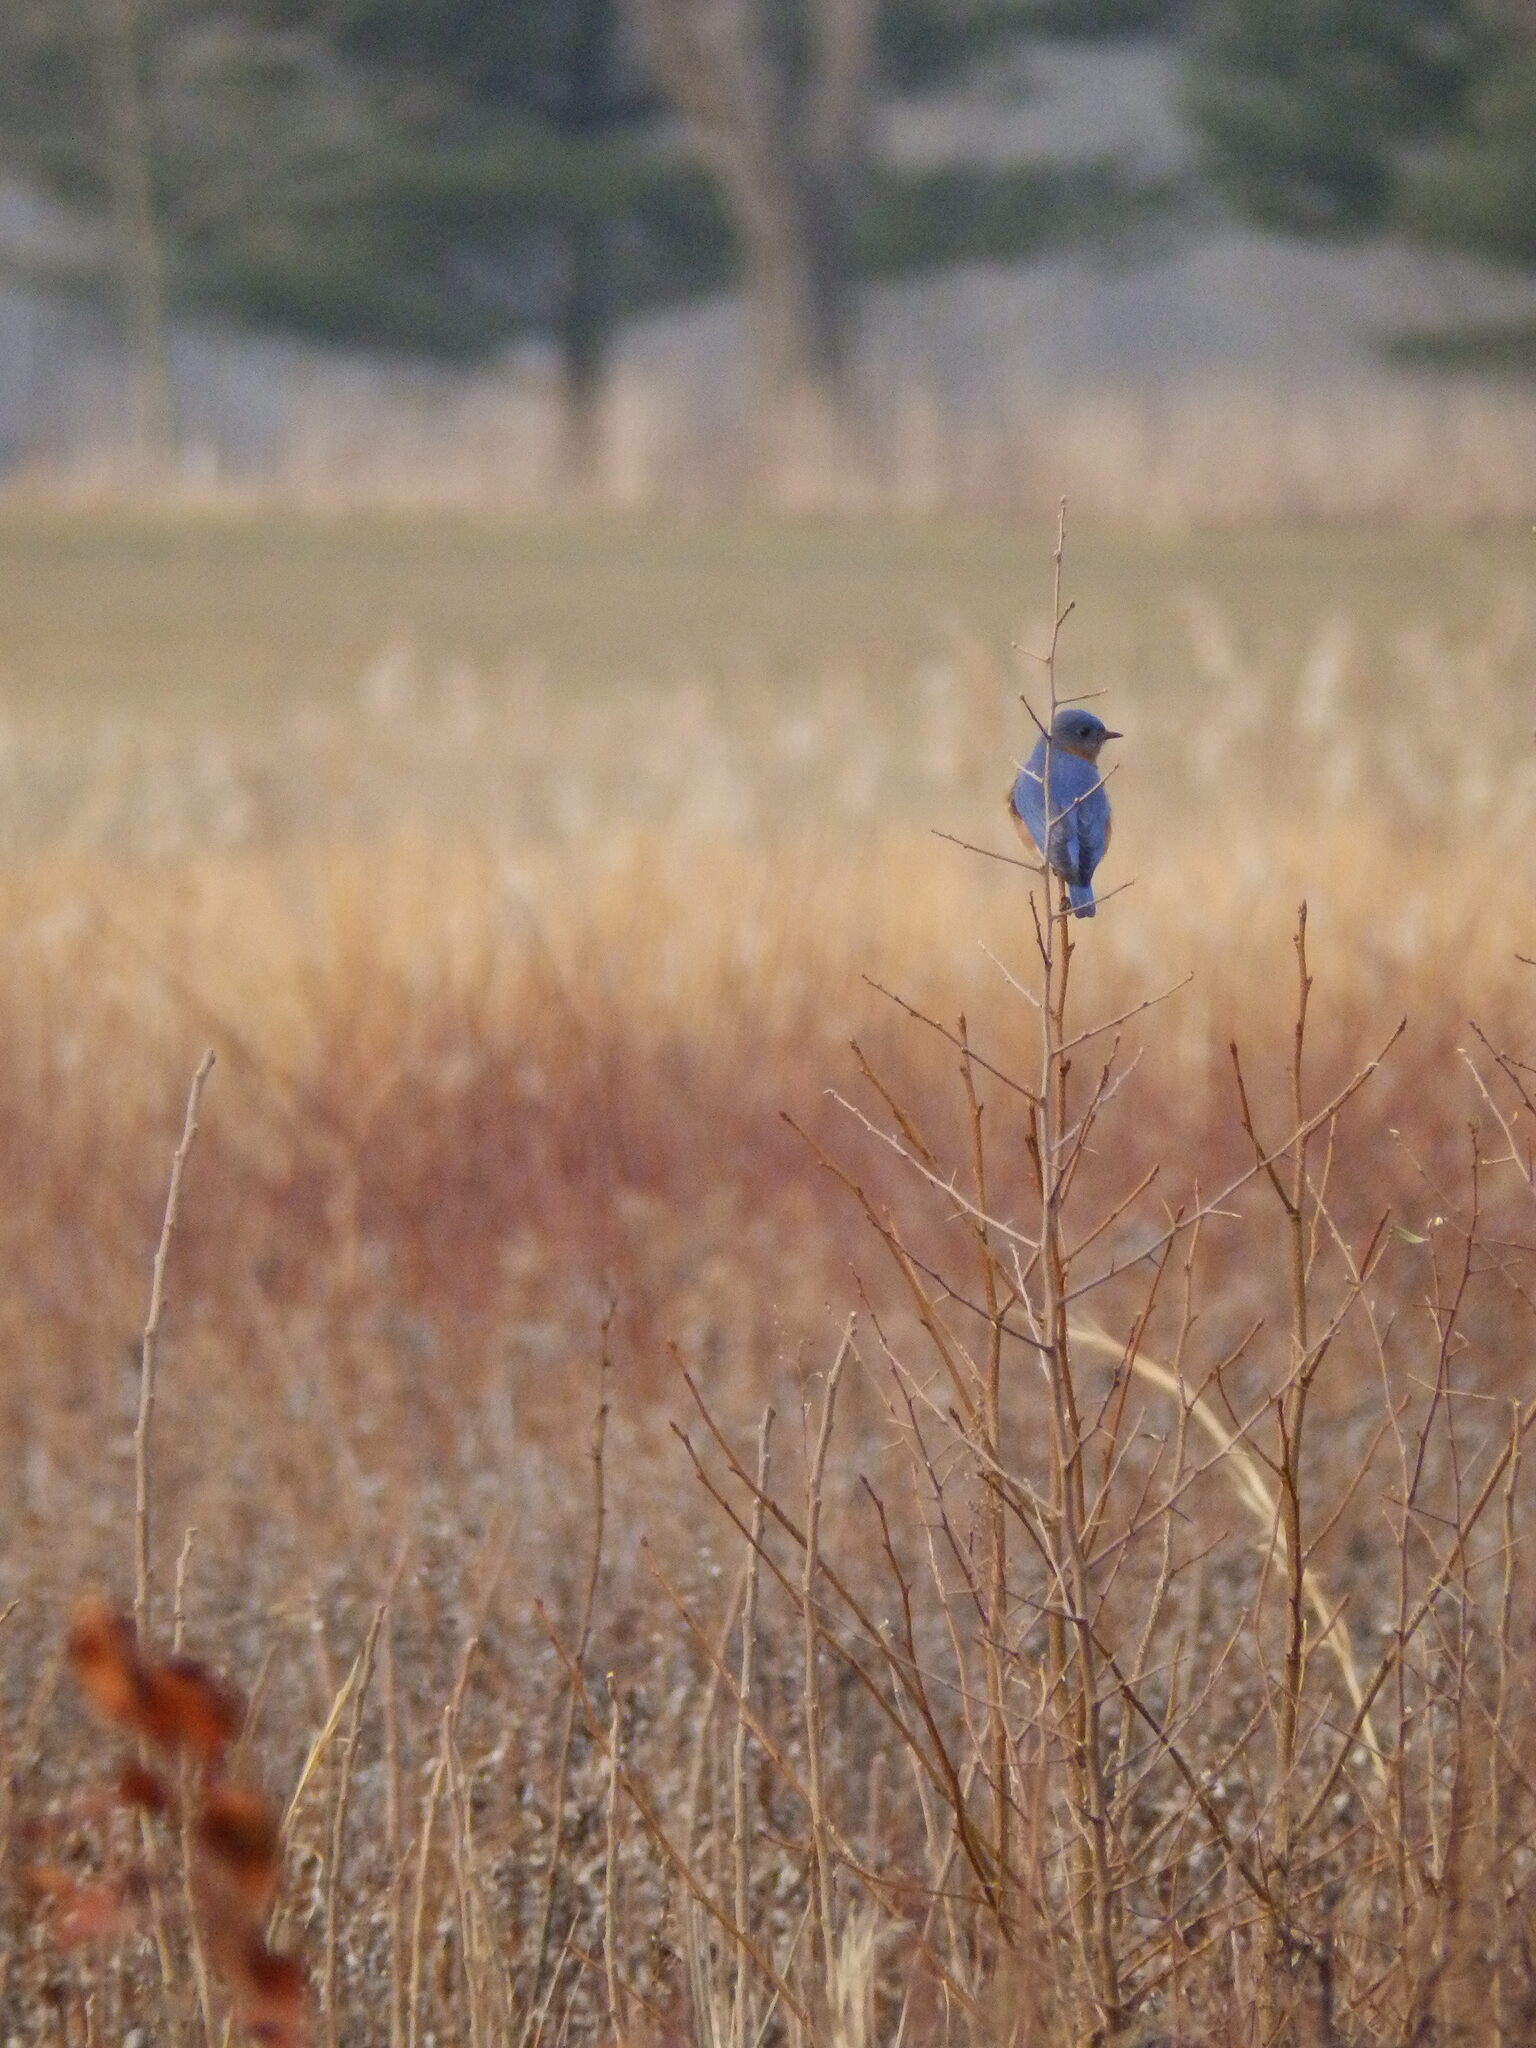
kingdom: Animalia
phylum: Chordata
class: Aves
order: Passeriformes
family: Turdidae
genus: Sialia
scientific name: Sialia sialis
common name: Eastern bluebird
